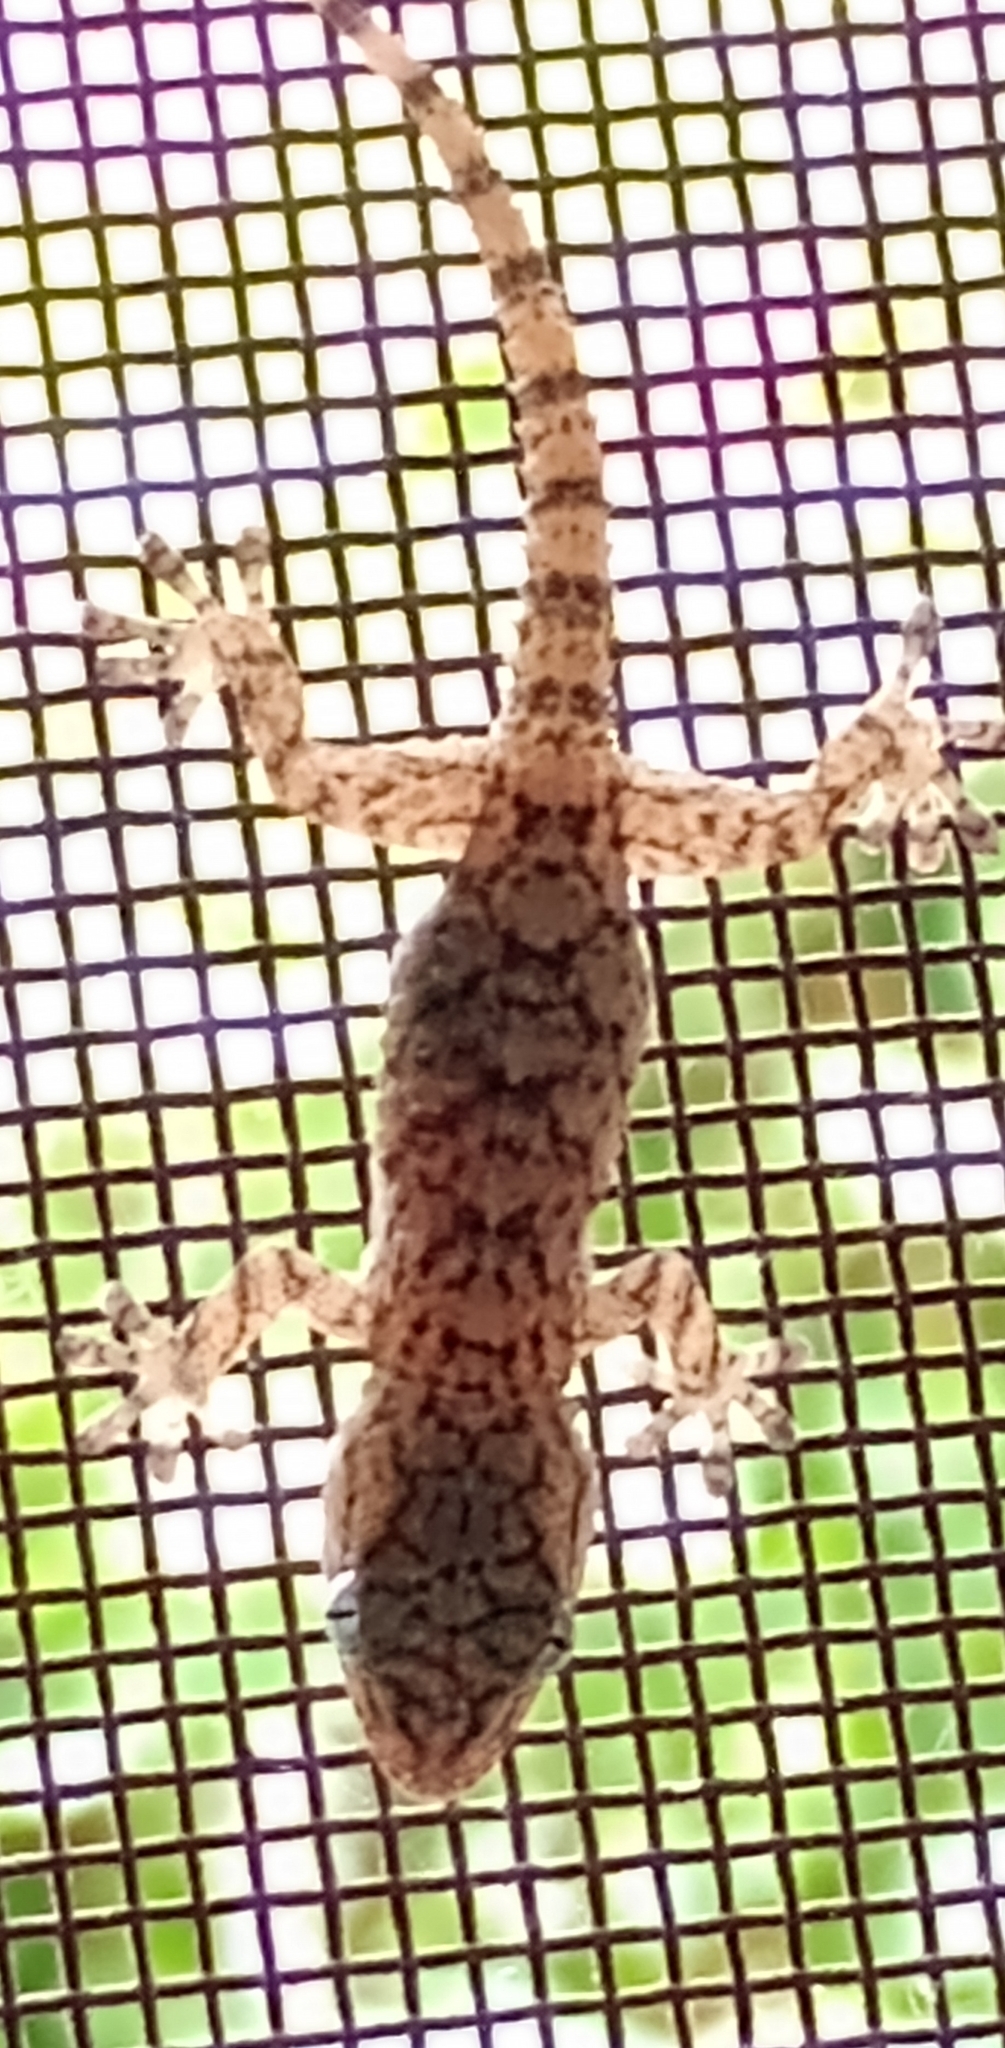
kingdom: Animalia
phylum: Chordata
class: Squamata
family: Phyllodactylidae
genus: Tarentola
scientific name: Tarentola mauritanica
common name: Moorish gecko
